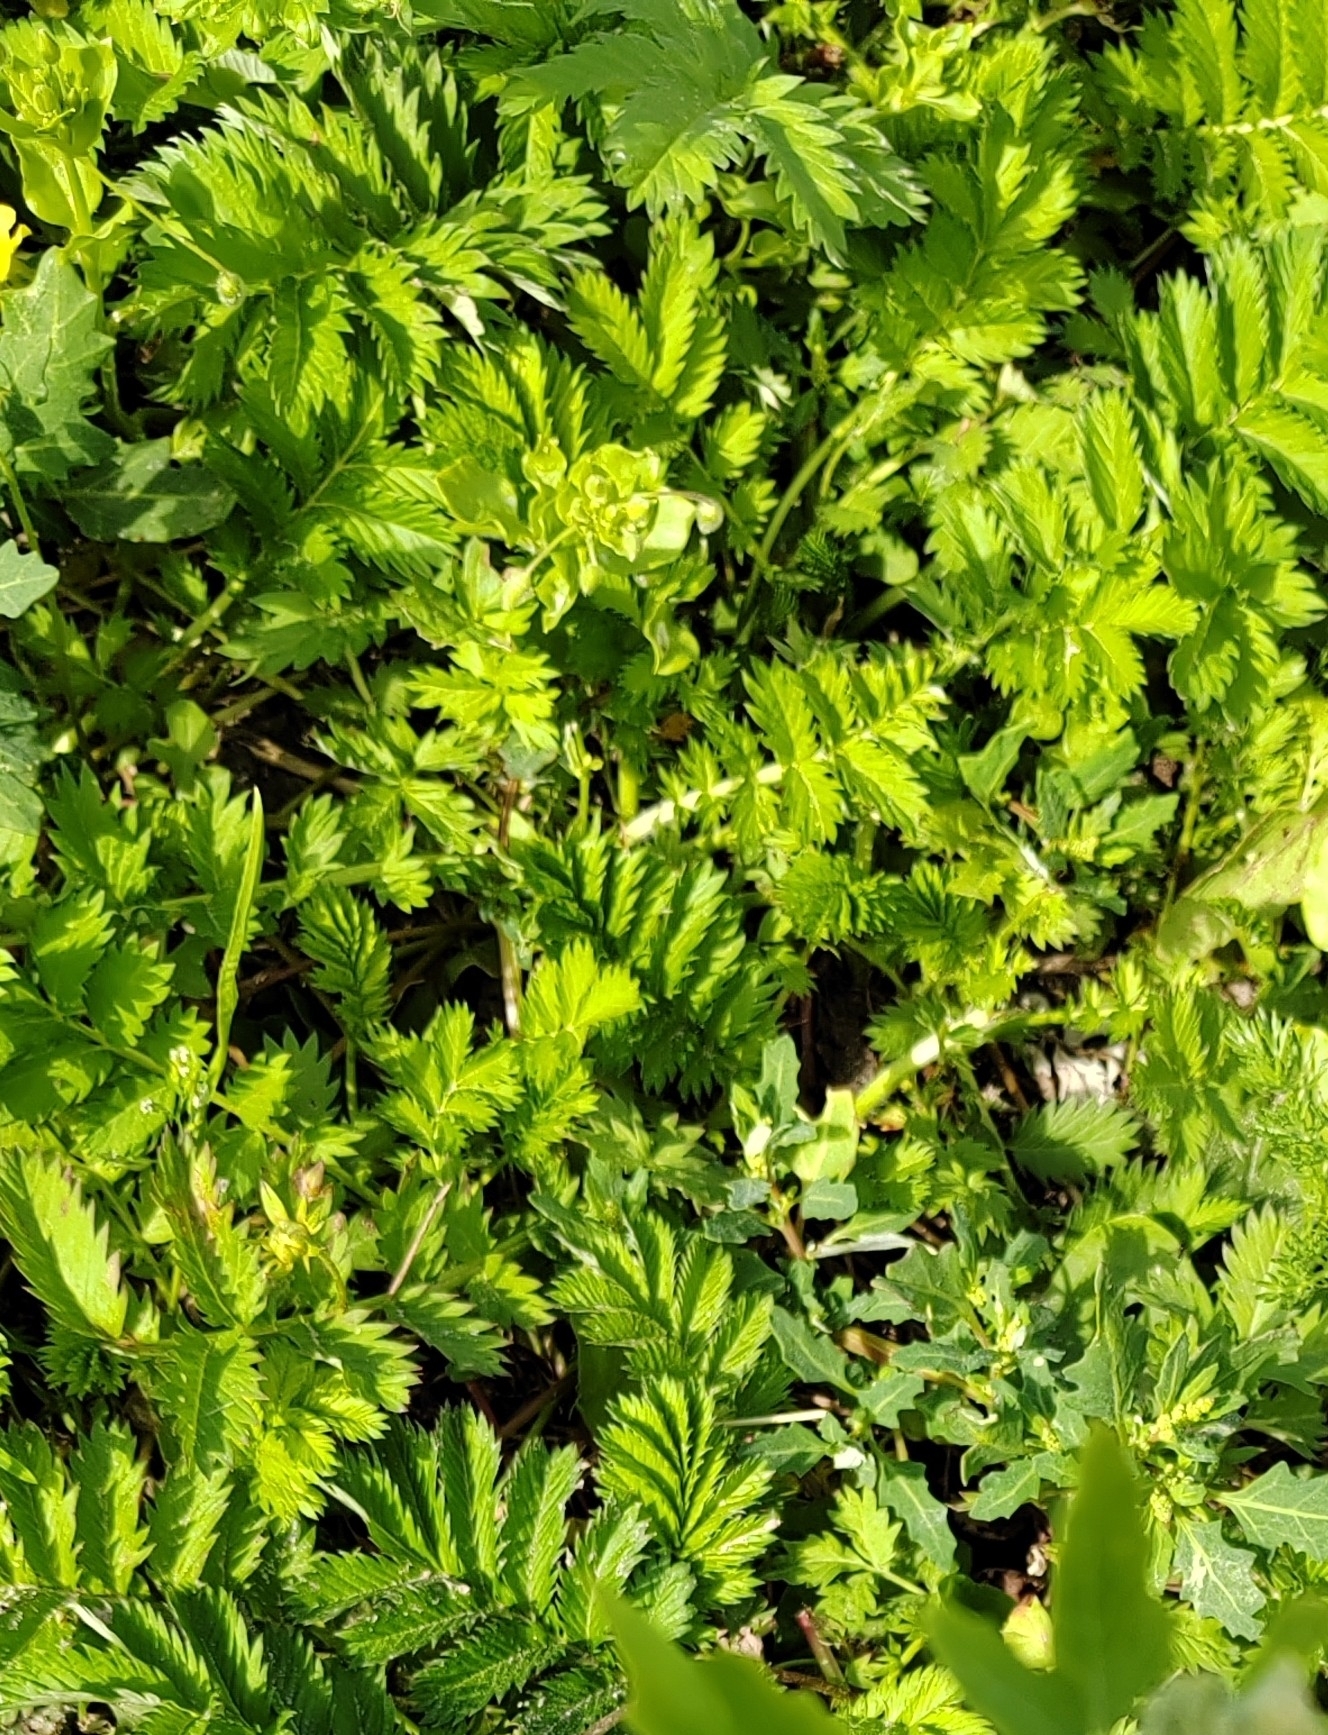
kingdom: Plantae
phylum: Tracheophyta
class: Magnoliopsida
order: Rosales
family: Rosaceae
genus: Argentina
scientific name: Argentina anserina
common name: Common silverweed
